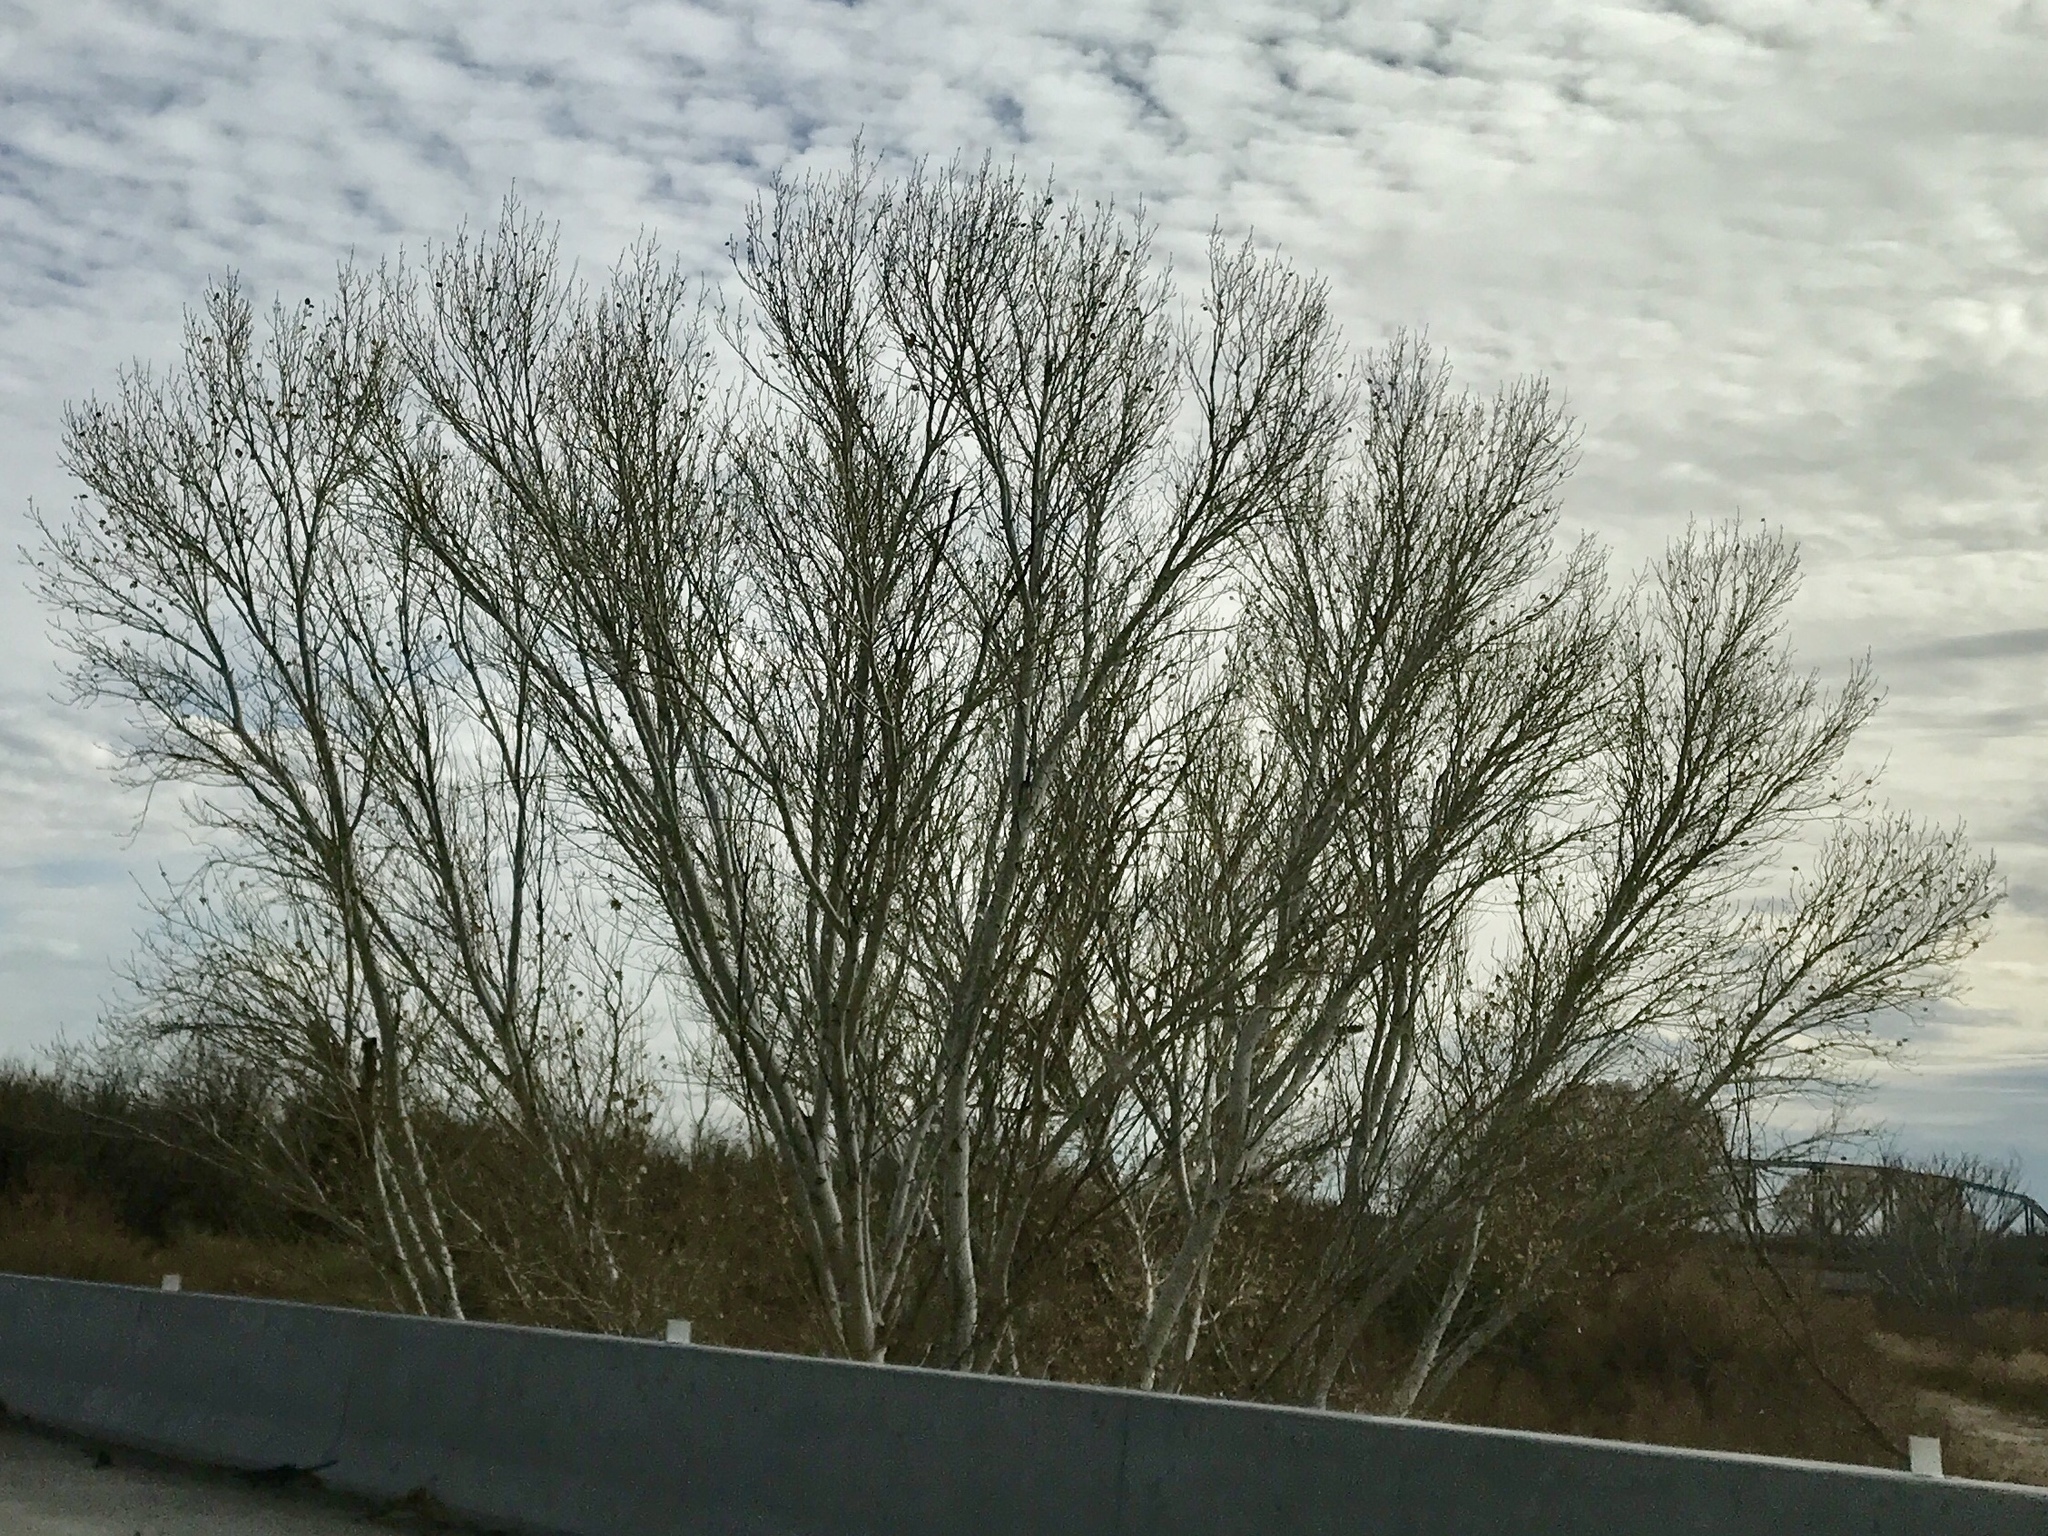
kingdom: Plantae
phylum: Tracheophyta
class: Magnoliopsida
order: Malpighiales
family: Salicaceae
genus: Populus
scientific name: Populus fremontii
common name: Fremont's cottonwood
